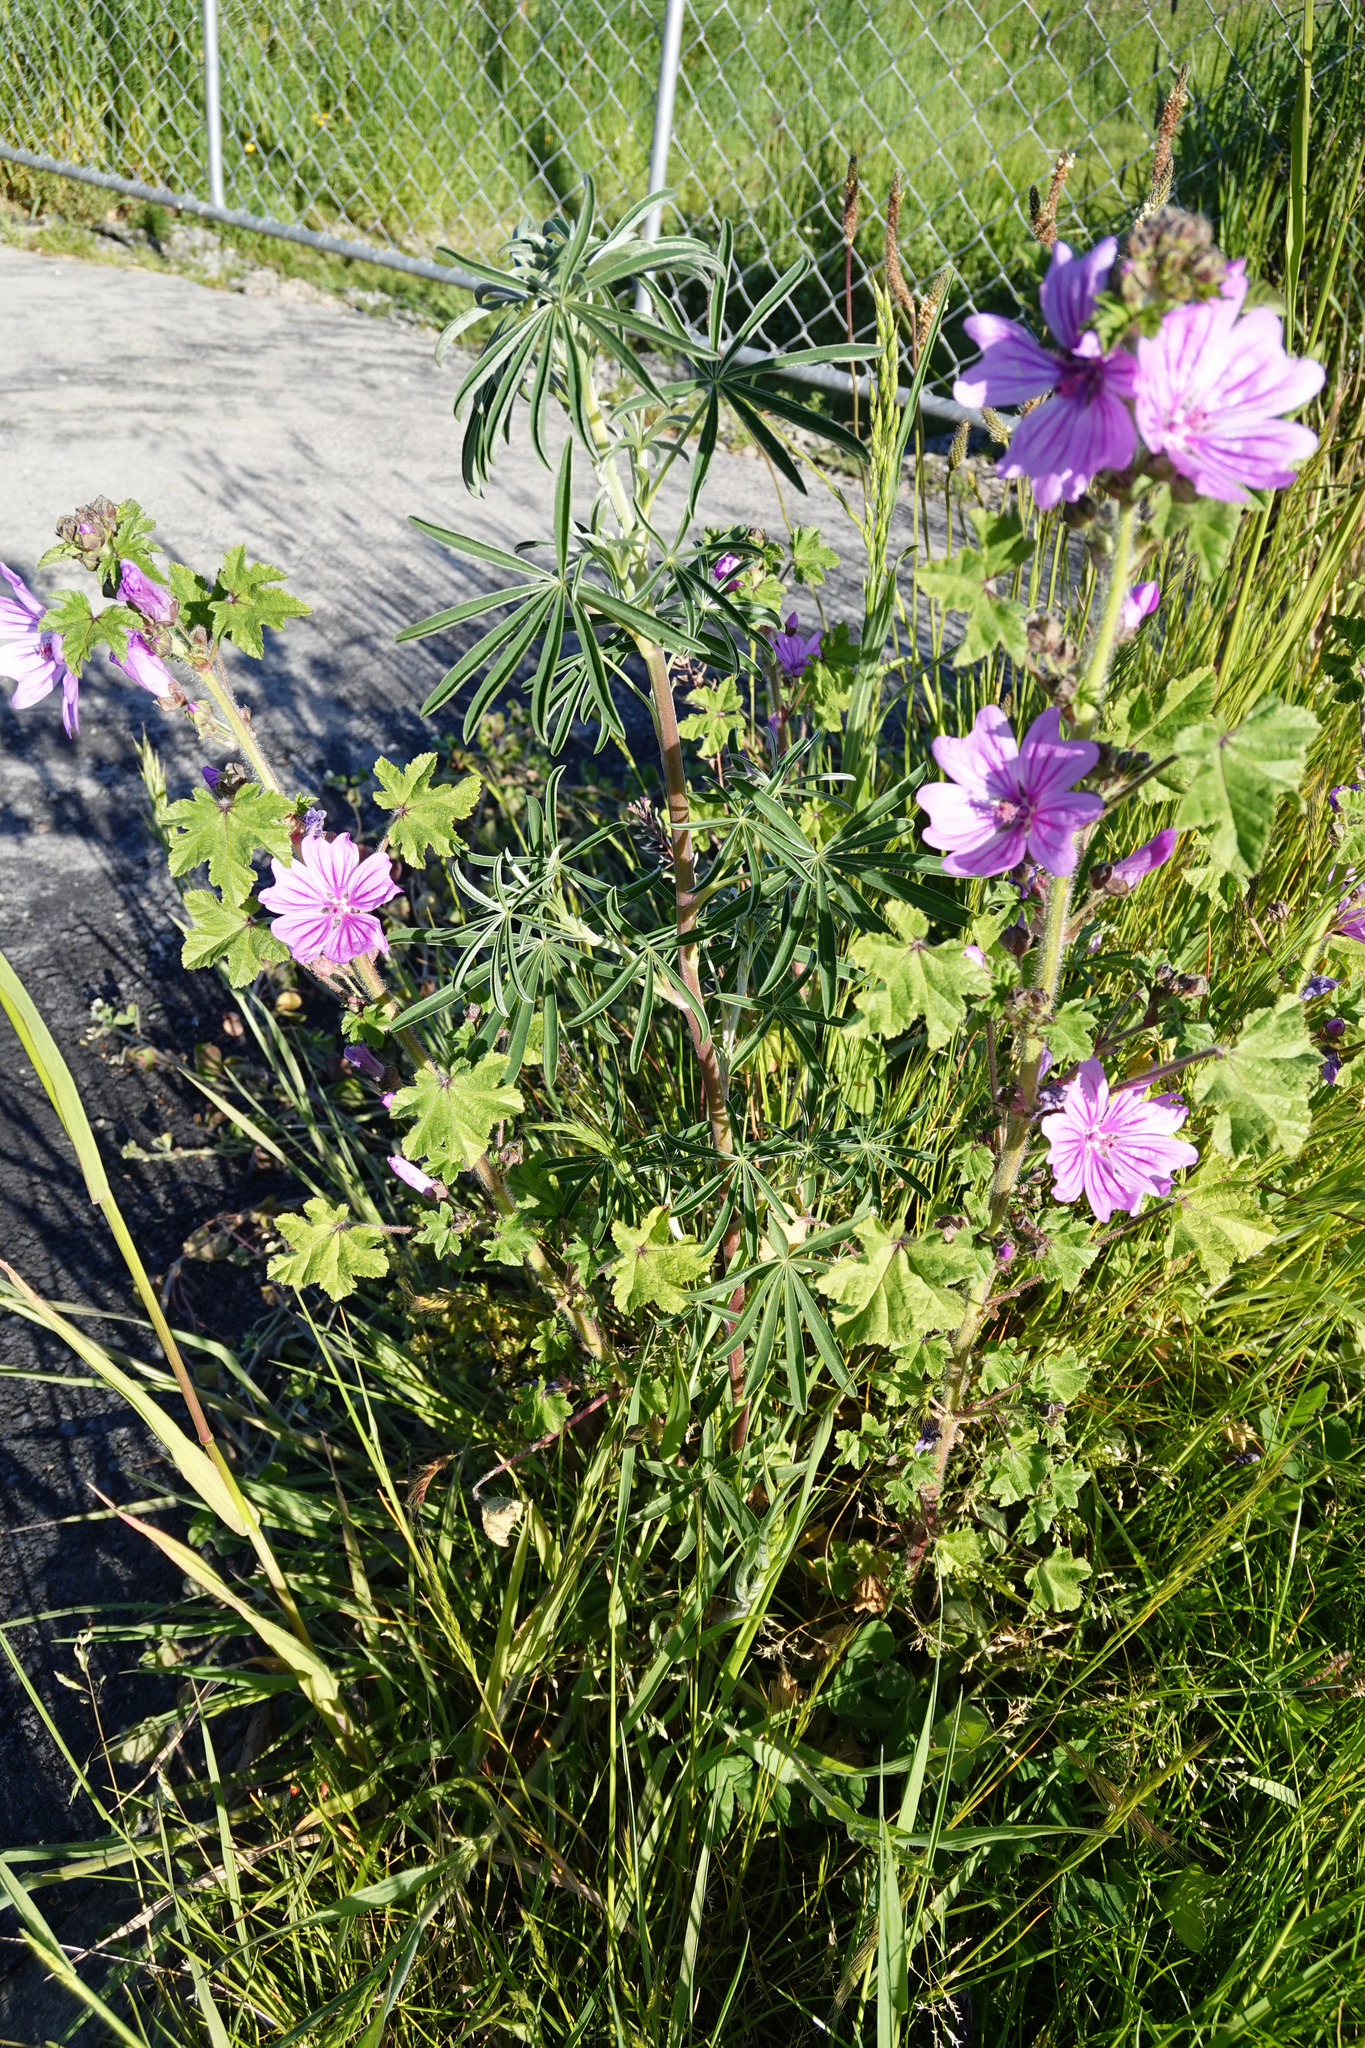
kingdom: Plantae
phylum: Tracheophyta
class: Magnoliopsida
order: Fabales
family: Fabaceae
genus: Lupinus
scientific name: Lupinus arboreus
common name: Yellow bush lupine
